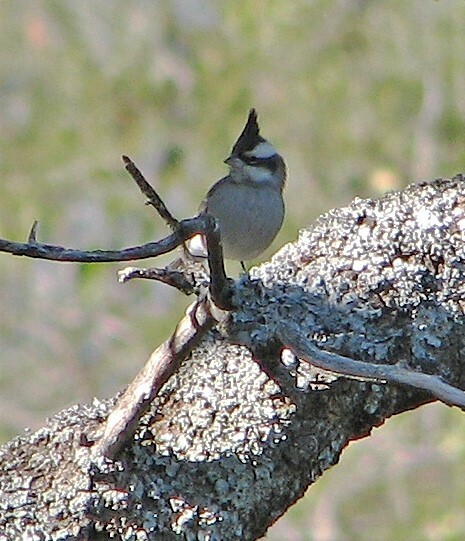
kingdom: Animalia
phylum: Chordata
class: Aves
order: Passeriformes
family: Thraupidae
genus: Lophospingus
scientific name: Lophospingus pusillus
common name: Black-crested finch
